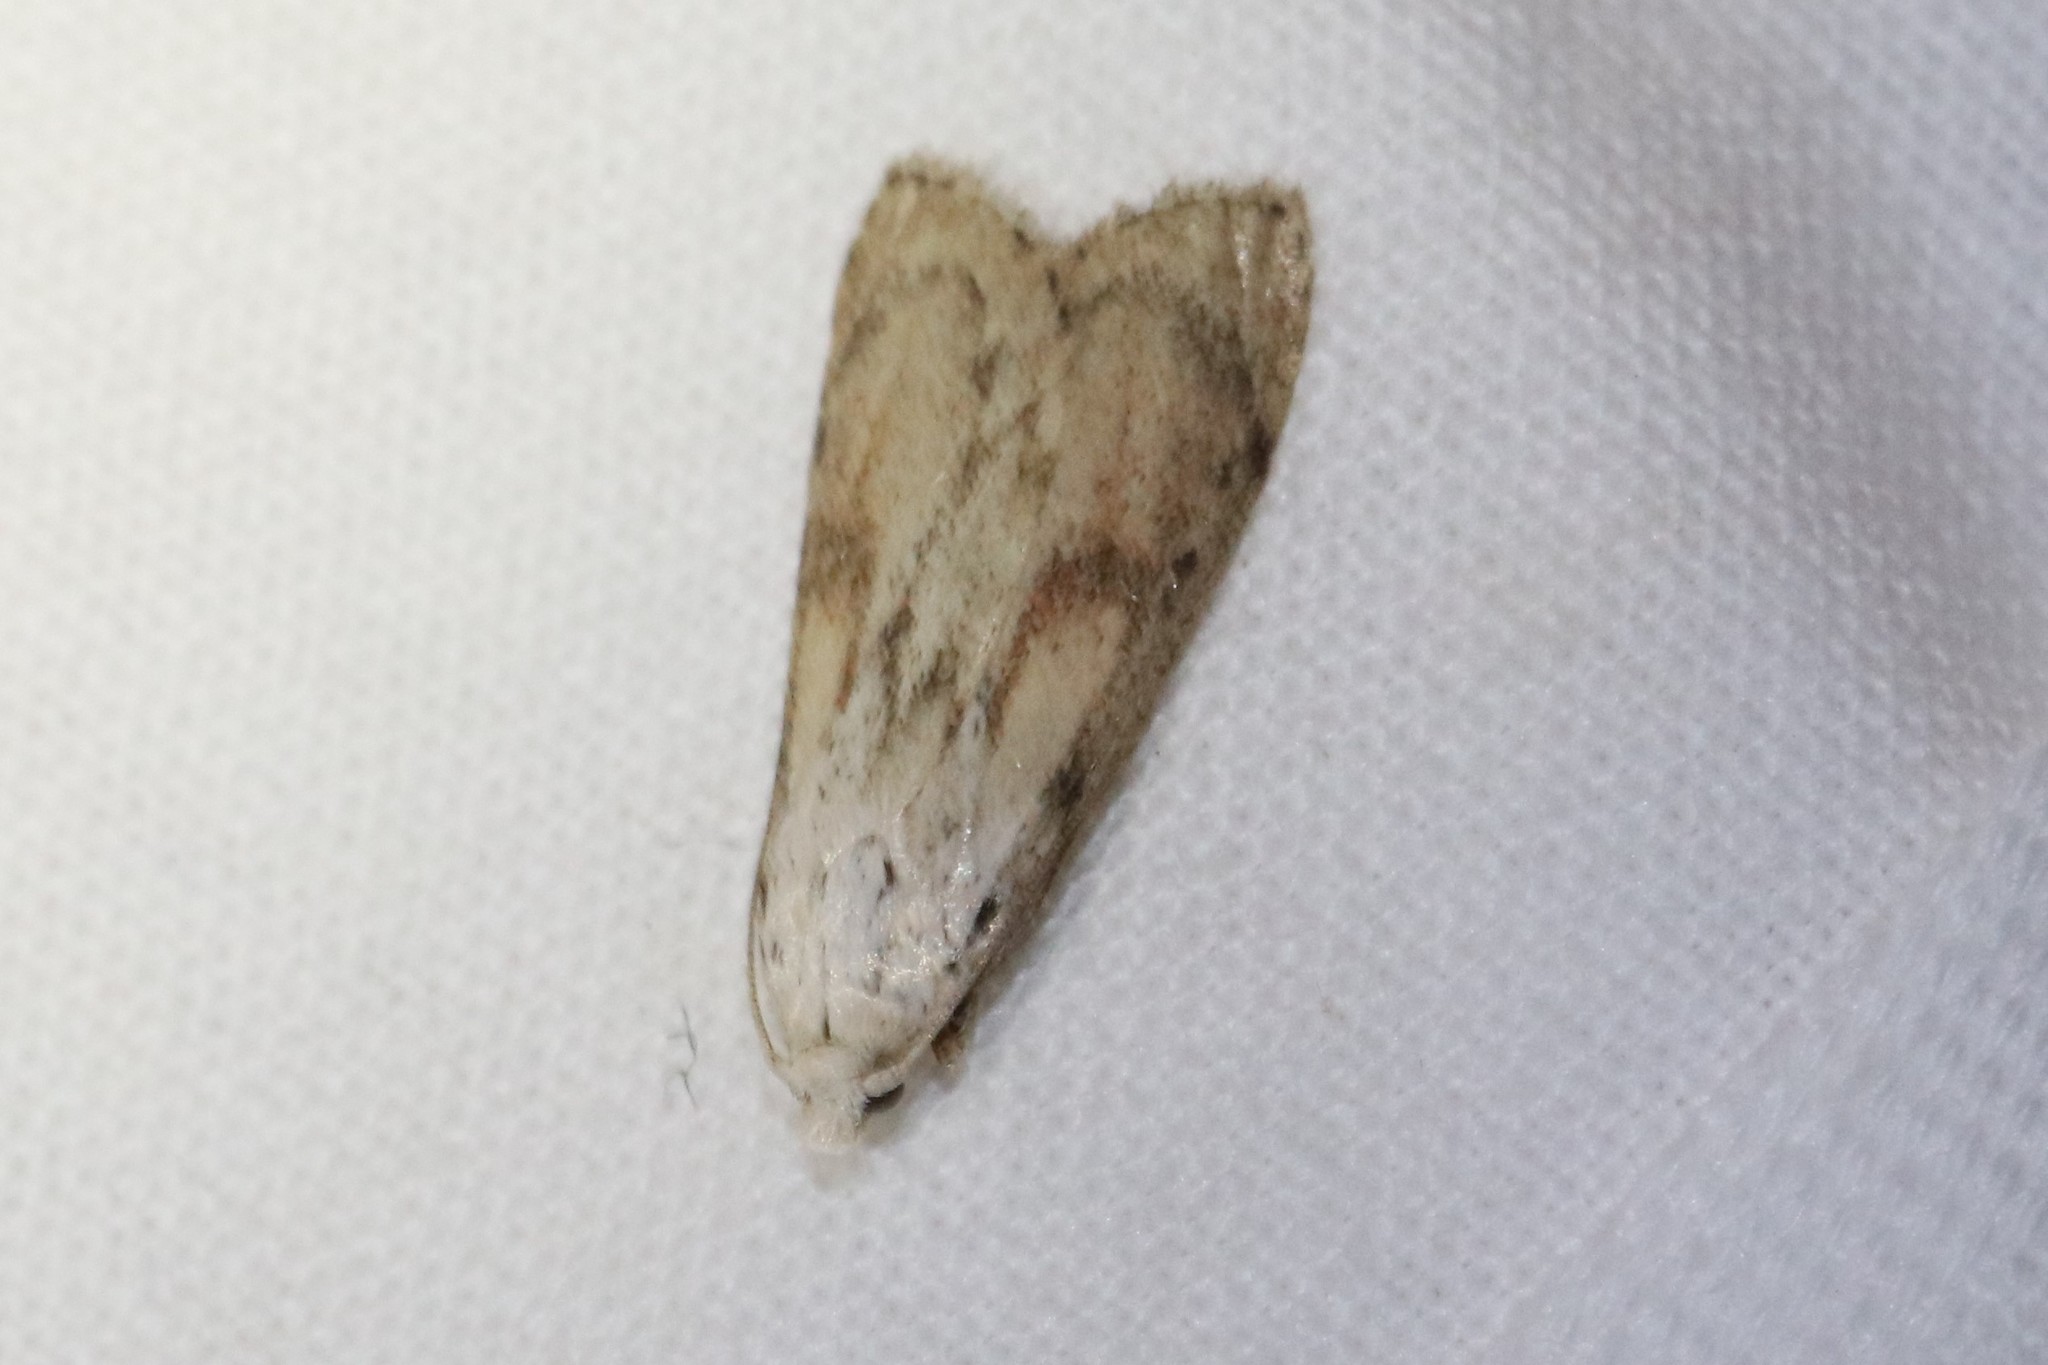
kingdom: Animalia
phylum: Arthropoda
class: Insecta
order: Lepidoptera
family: Pyralidae
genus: Aphomia
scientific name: Aphomia sociella
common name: Bee moth
